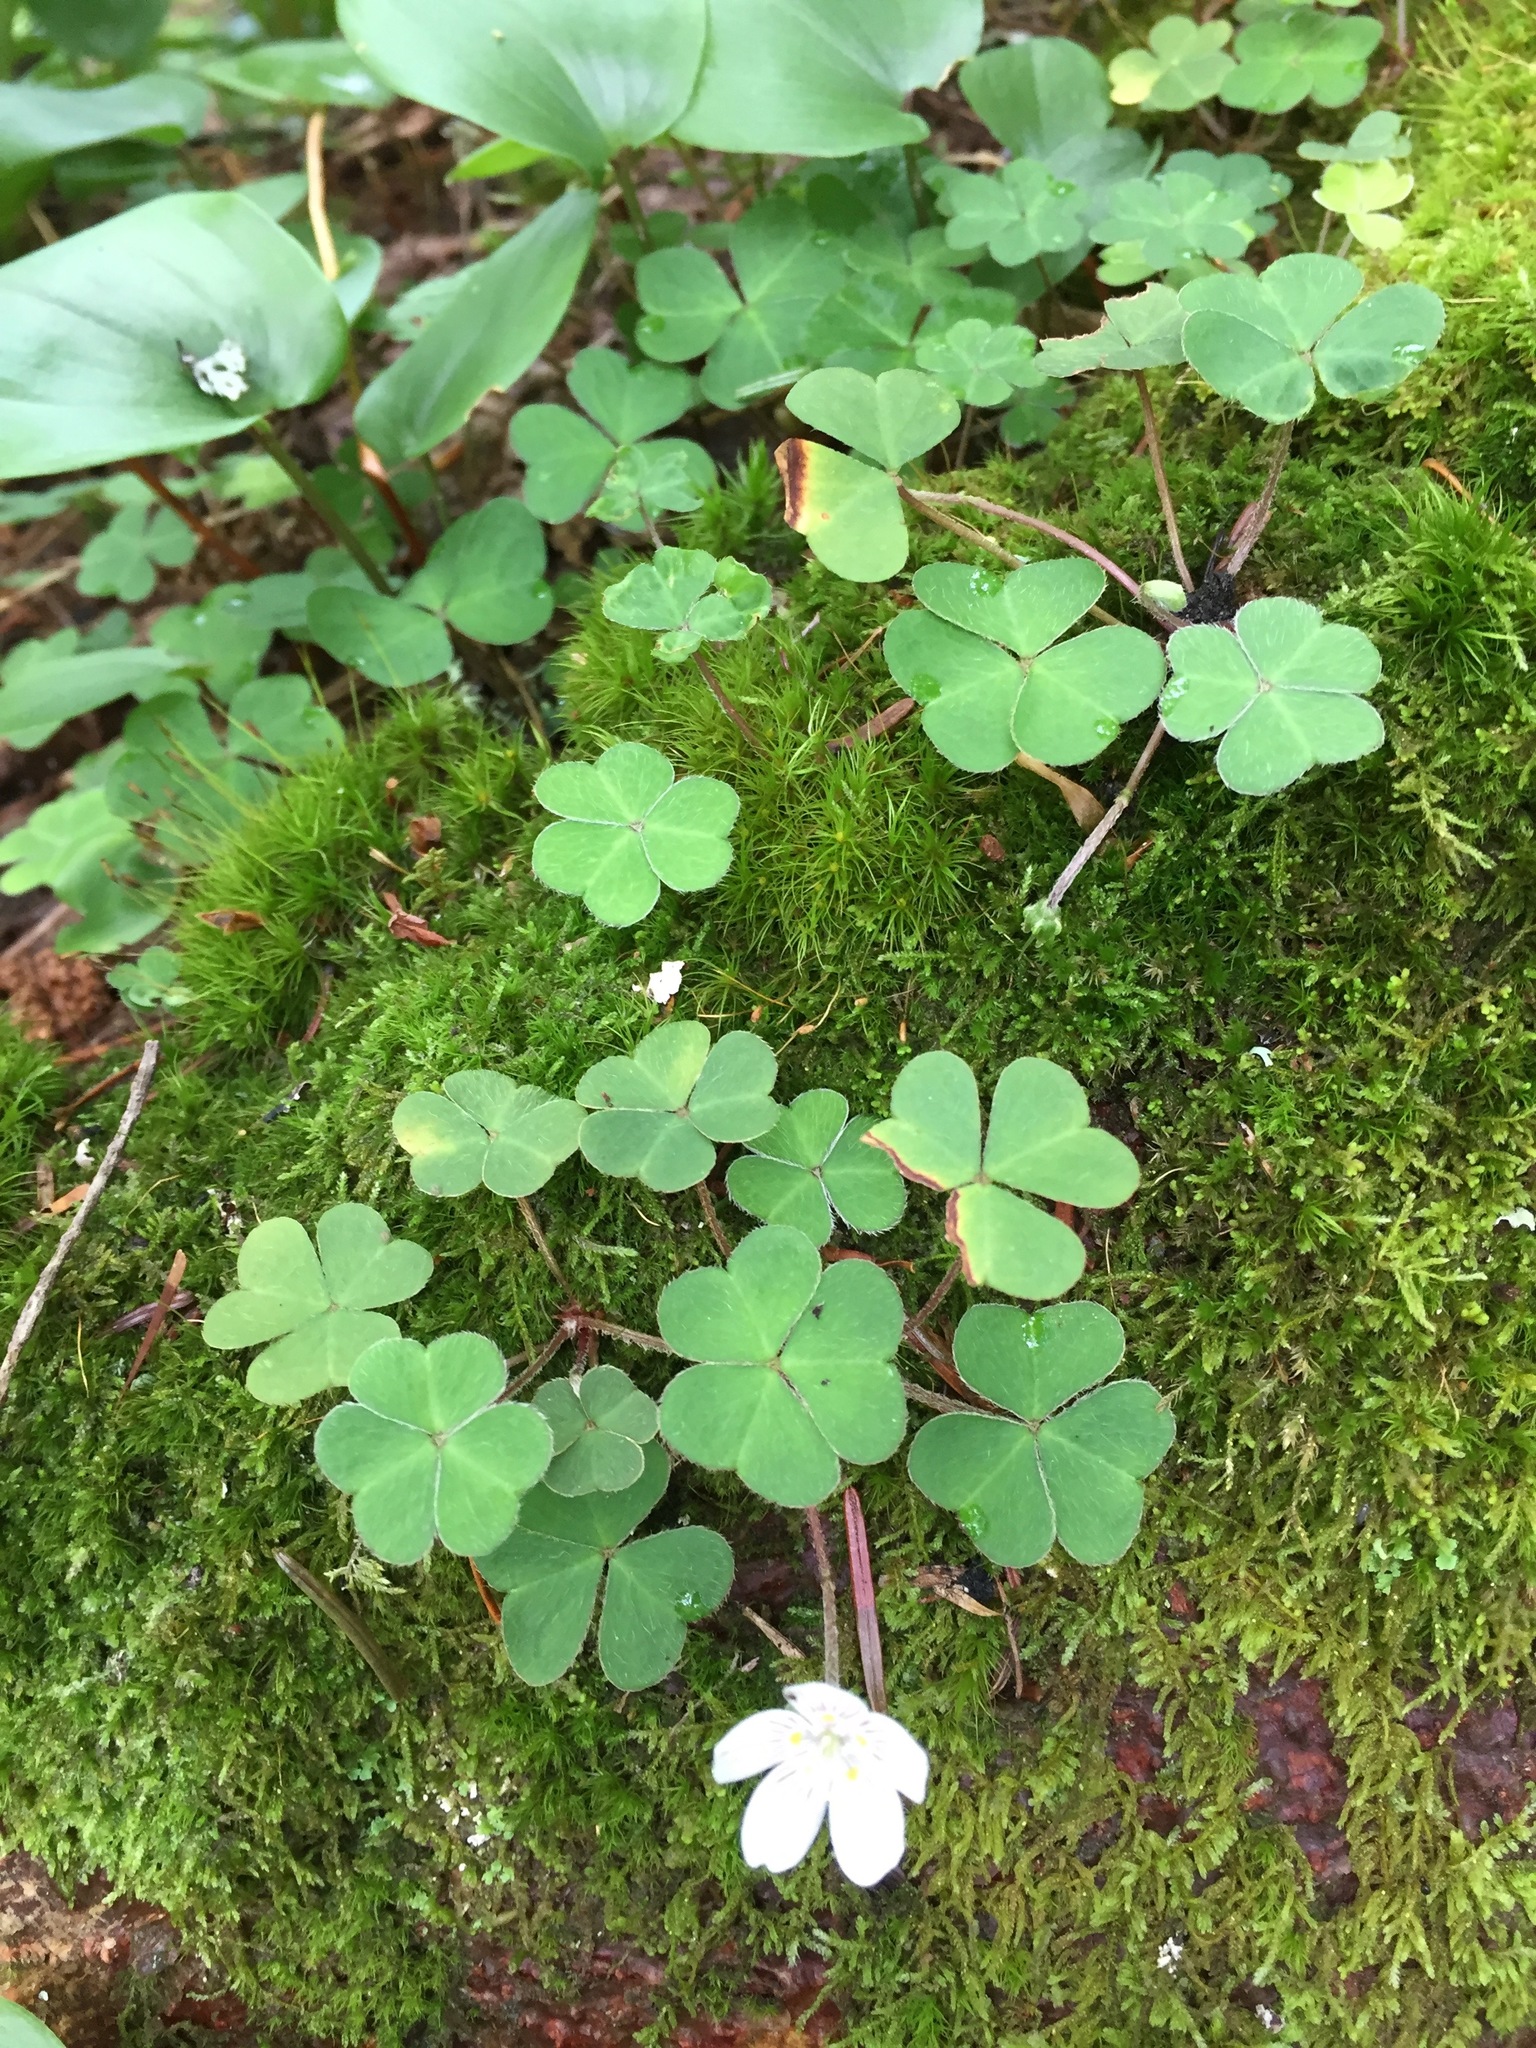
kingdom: Plantae
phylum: Tracheophyta
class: Magnoliopsida
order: Oxalidales
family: Oxalidaceae
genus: Oxalis
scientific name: Oxalis montana
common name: American wood-sorrel
